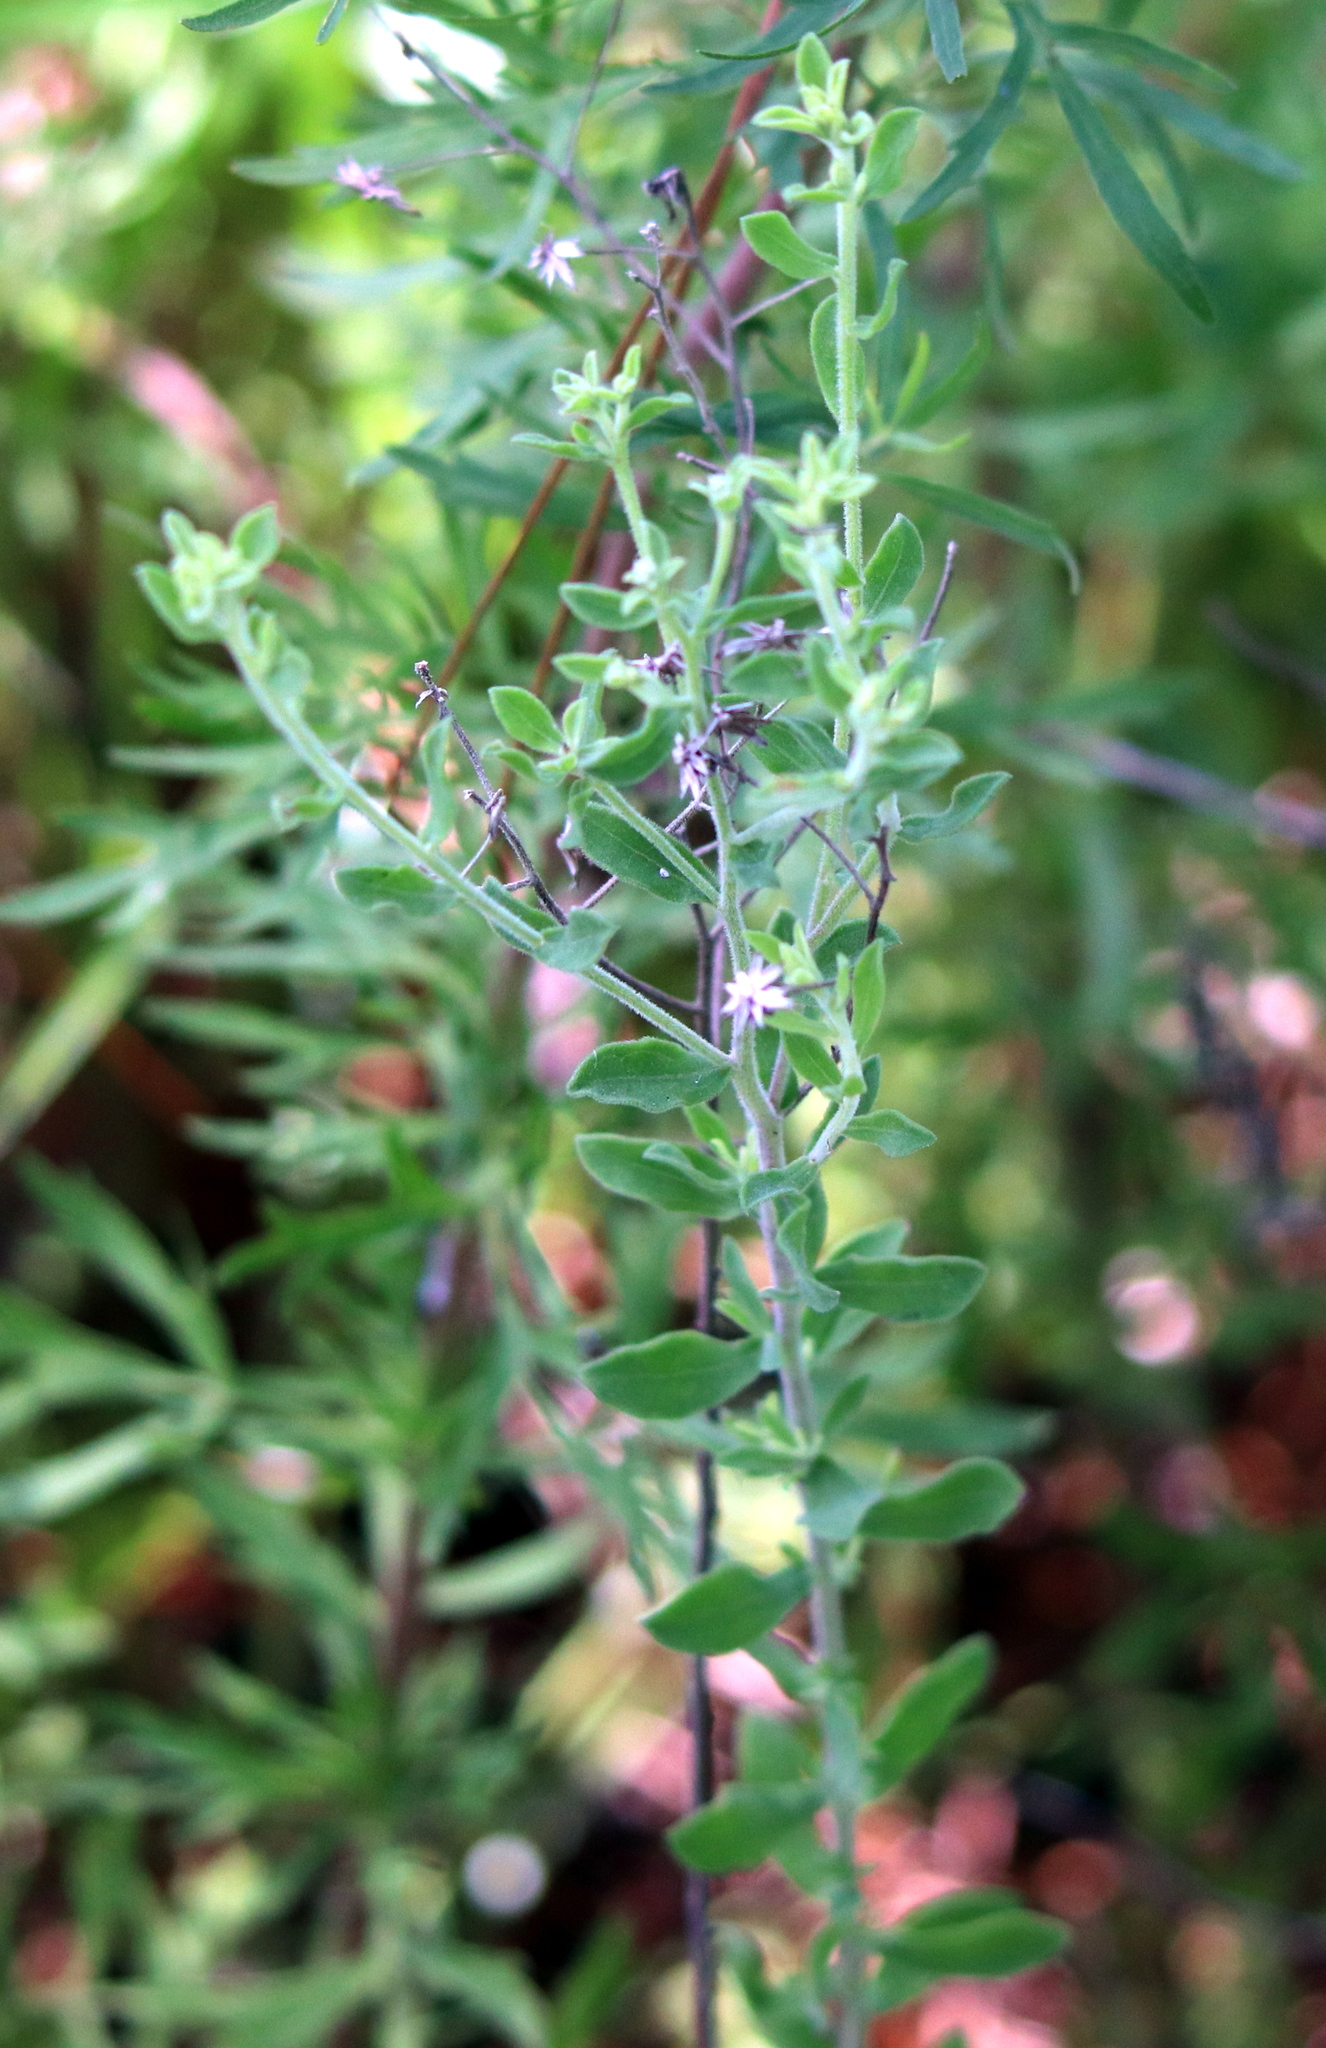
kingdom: Plantae
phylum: Tracheophyta
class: Magnoliopsida
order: Asterales
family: Asteraceae
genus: Sericocarpus
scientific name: Sericocarpus tortifolius
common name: Dixie aster
